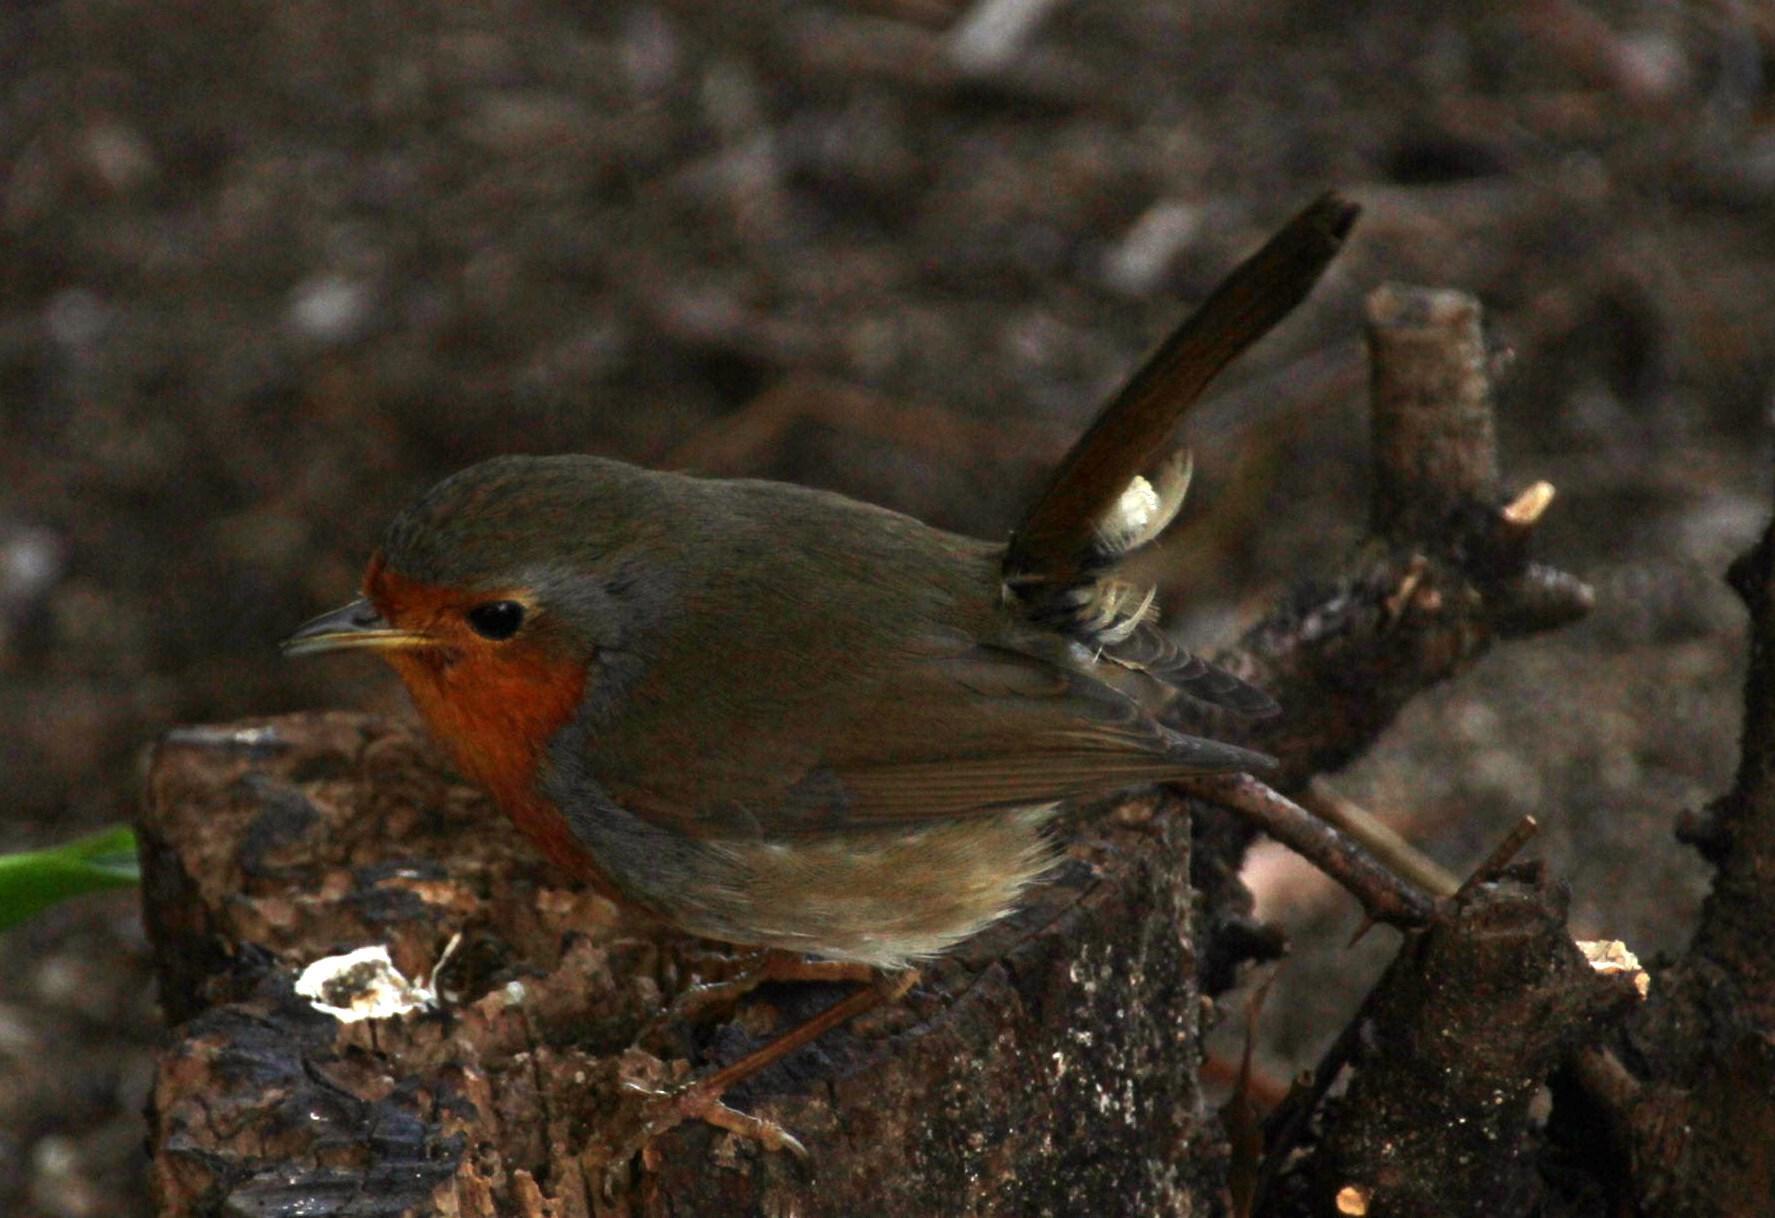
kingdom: Animalia
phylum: Chordata
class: Aves
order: Passeriformes
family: Muscicapidae
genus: Erithacus
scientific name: Erithacus rubecula
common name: European robin
